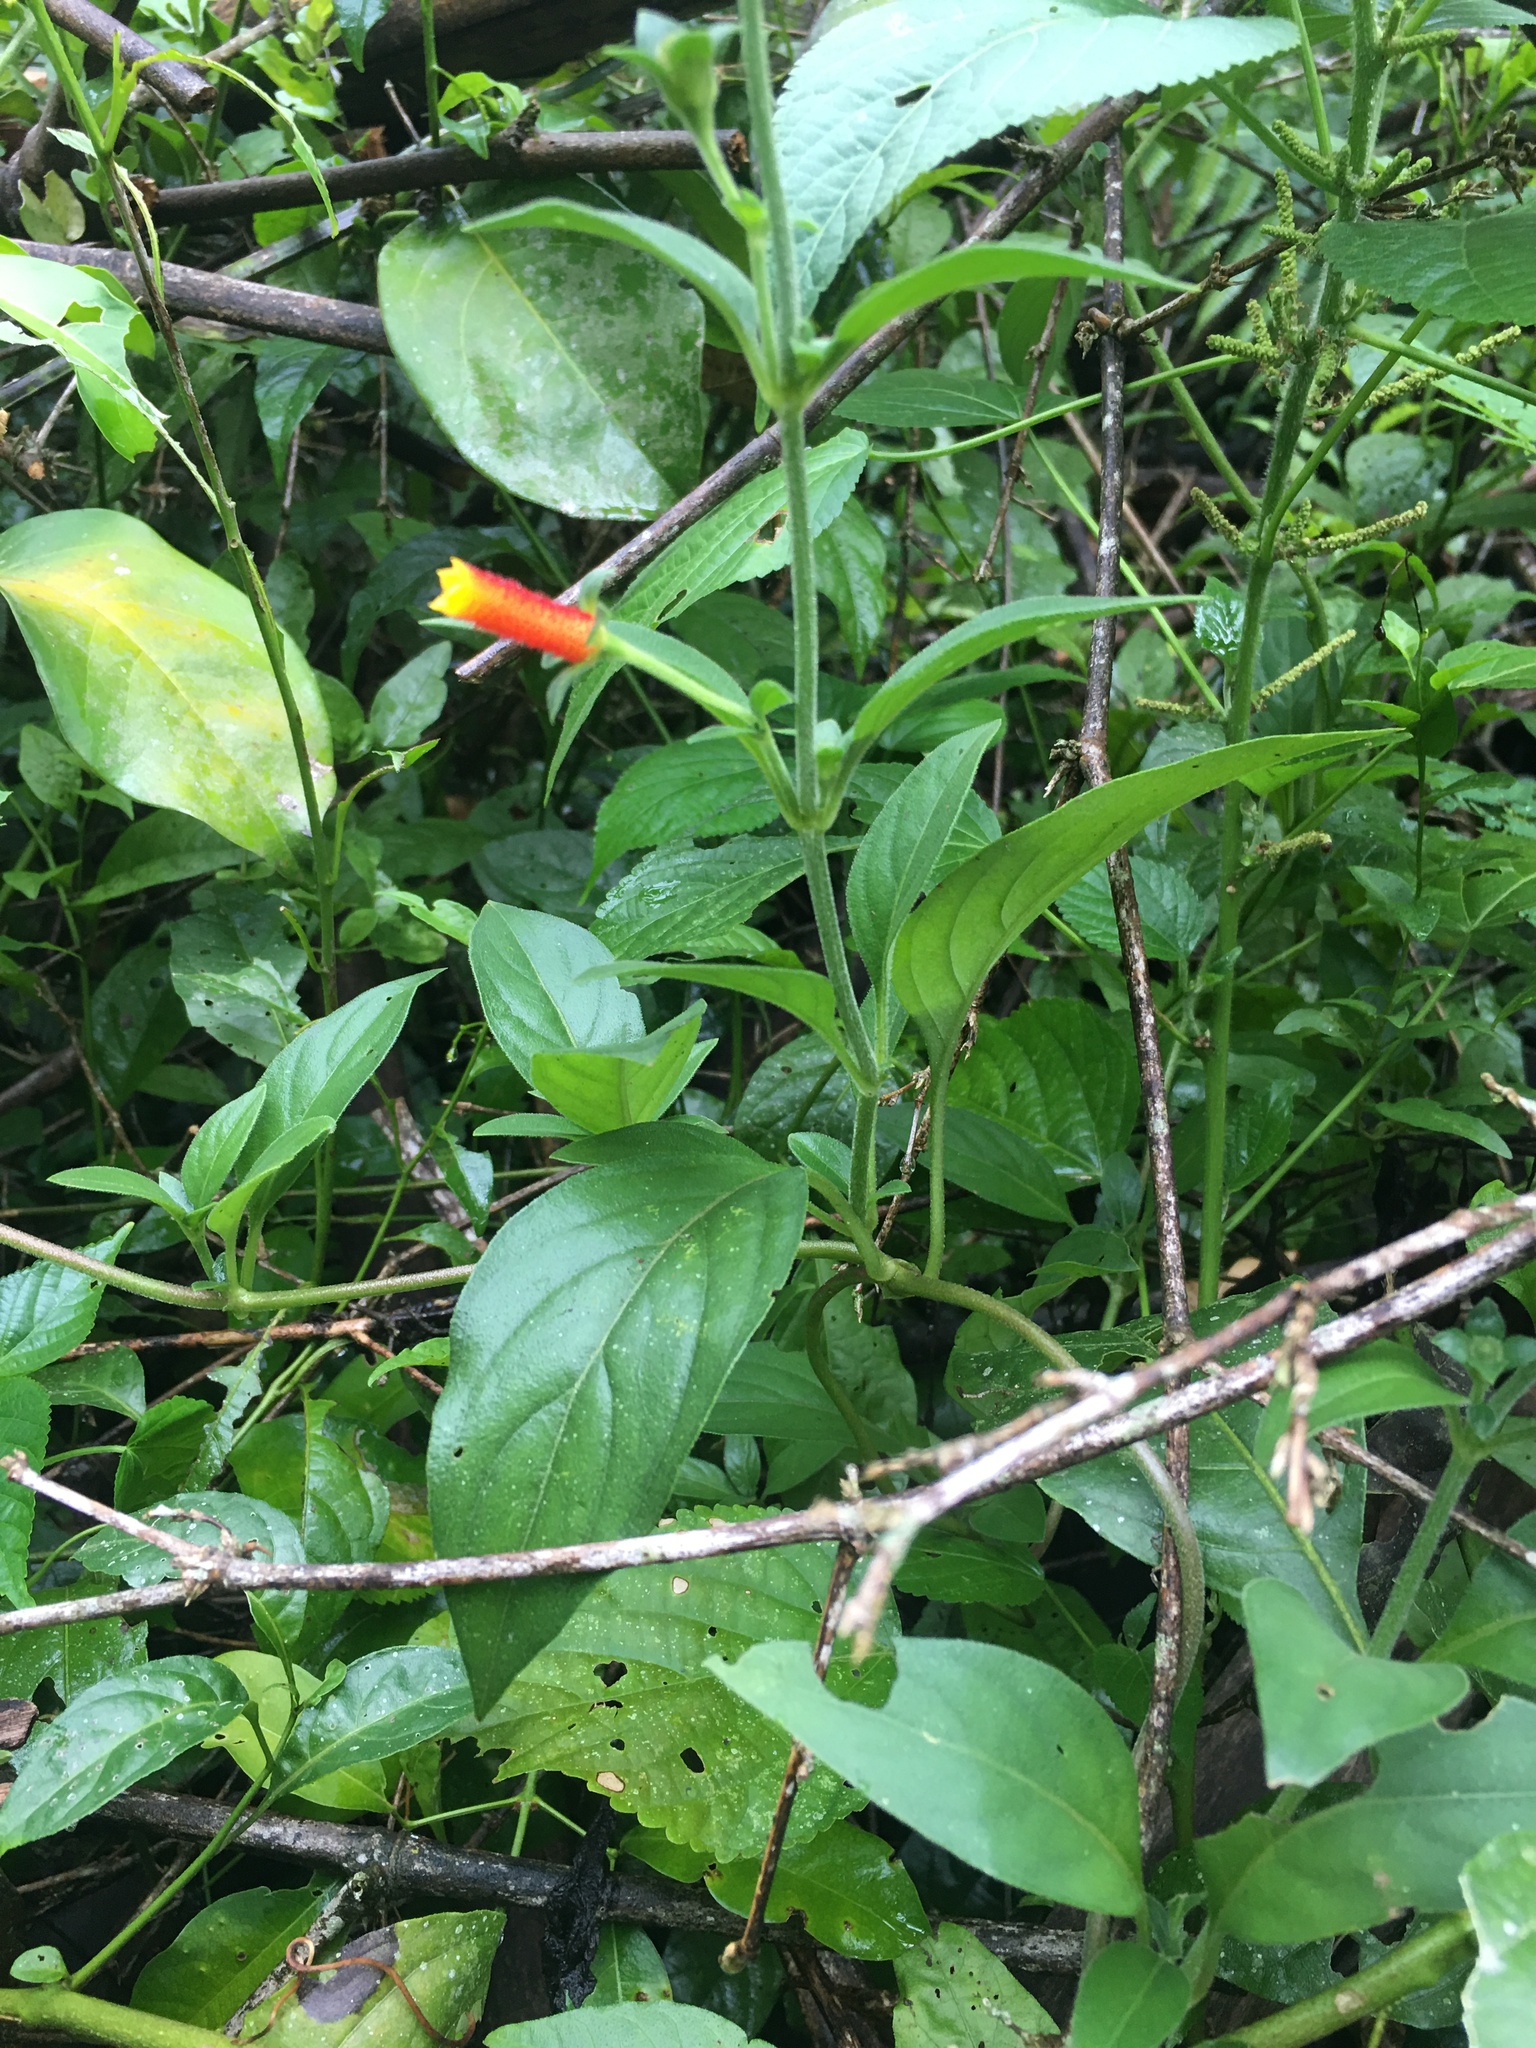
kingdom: Plantae
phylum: Tracheophyta
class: Magnoliopsida
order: Gentianales
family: Rubiaceae
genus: Manettia
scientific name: Manettia paraguariensis
